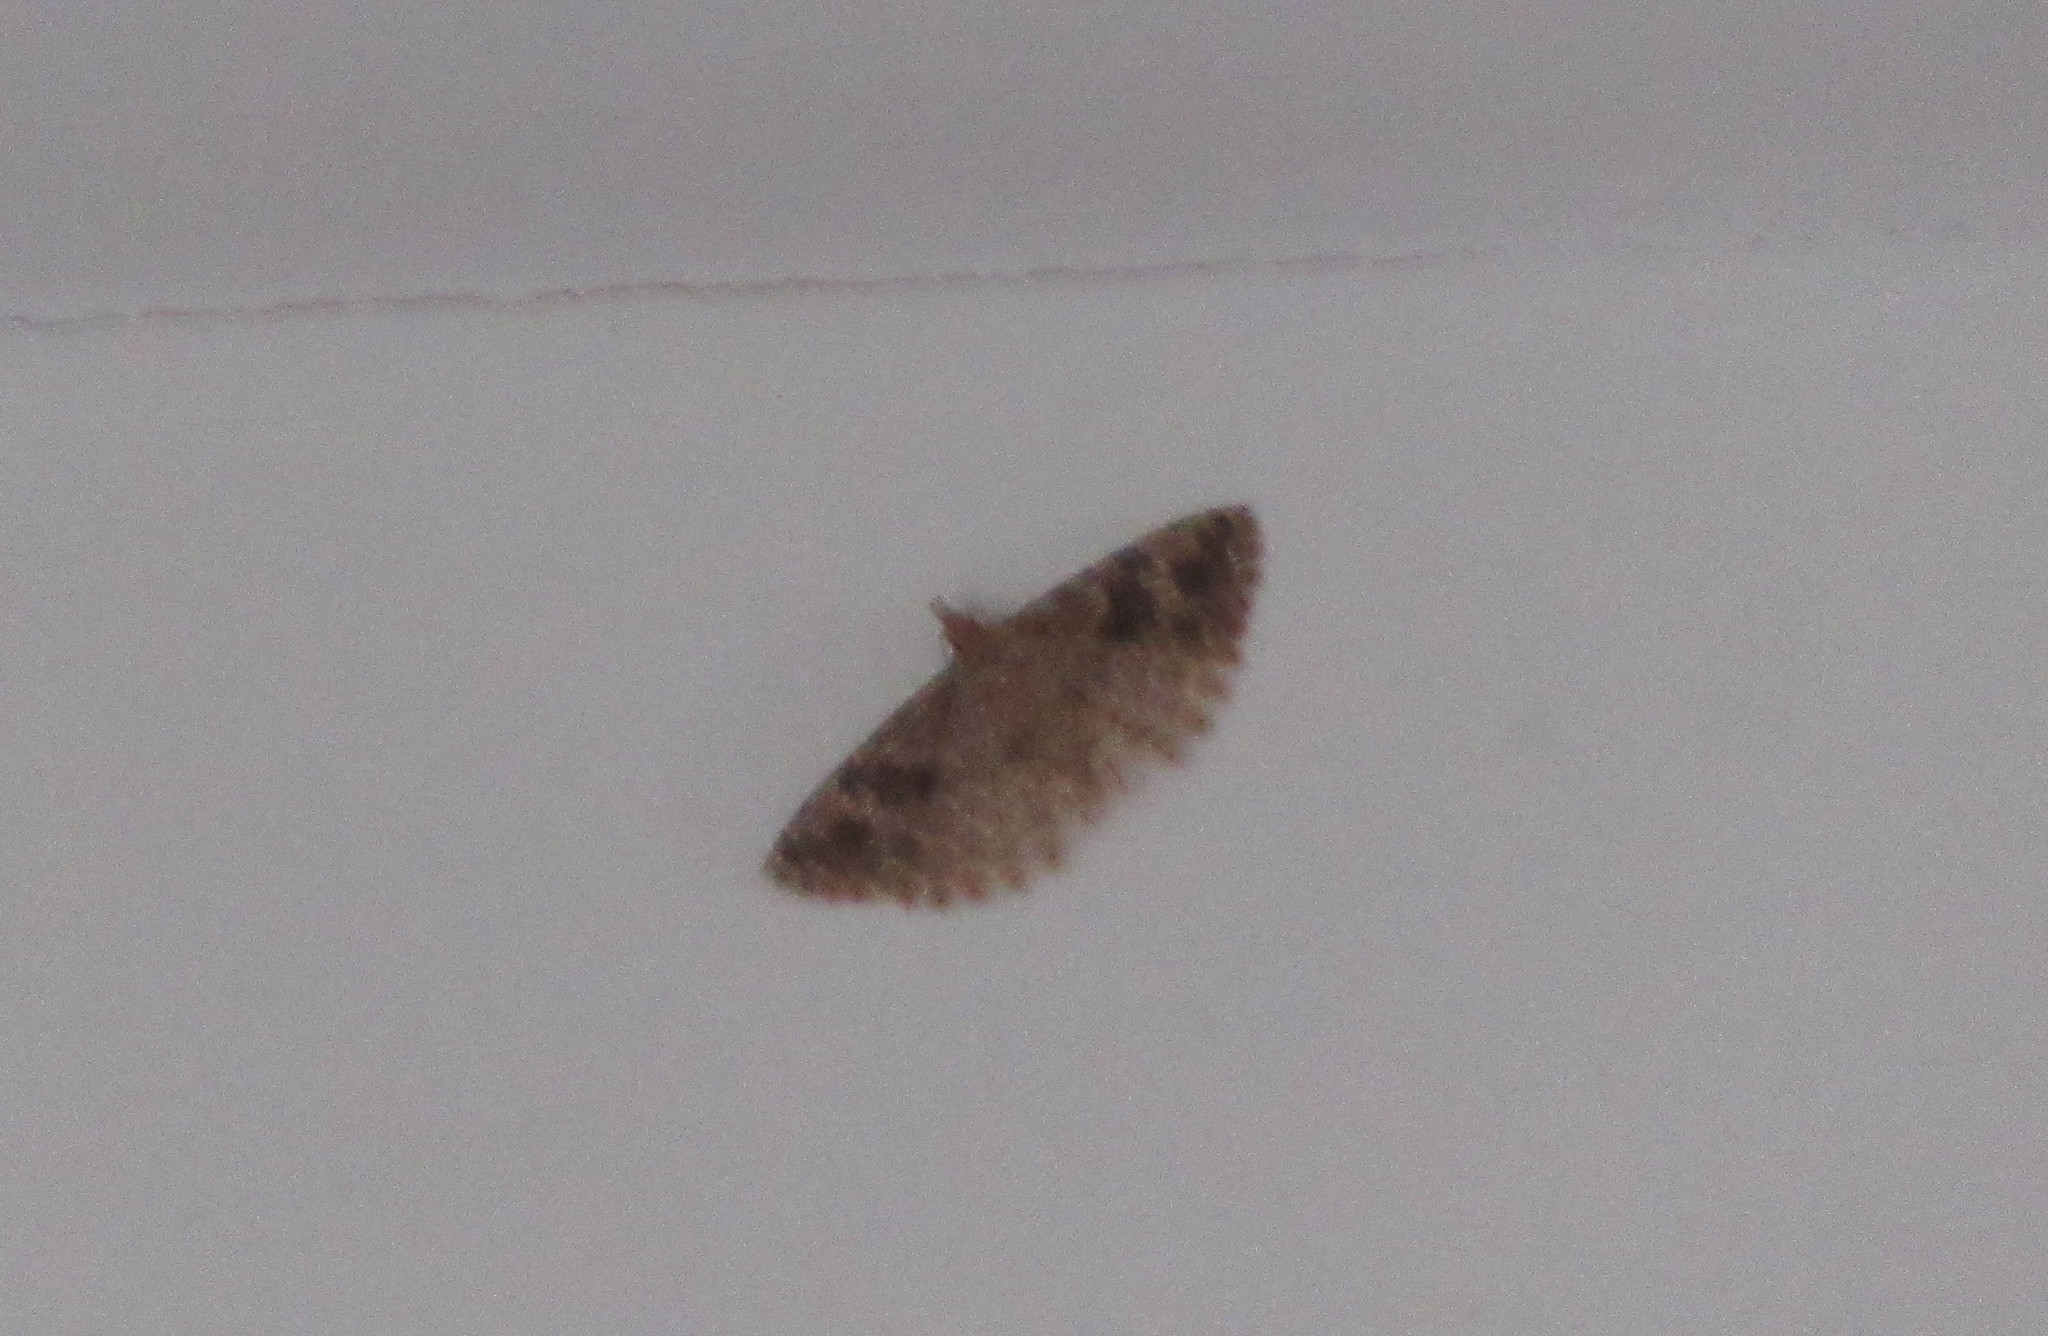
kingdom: Animalia
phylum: Arthropoda
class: Insecta
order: Lepidoptera
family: Alucitidae
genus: Alucita
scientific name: Alucita hexadactyla
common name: Twenty-plume moth
